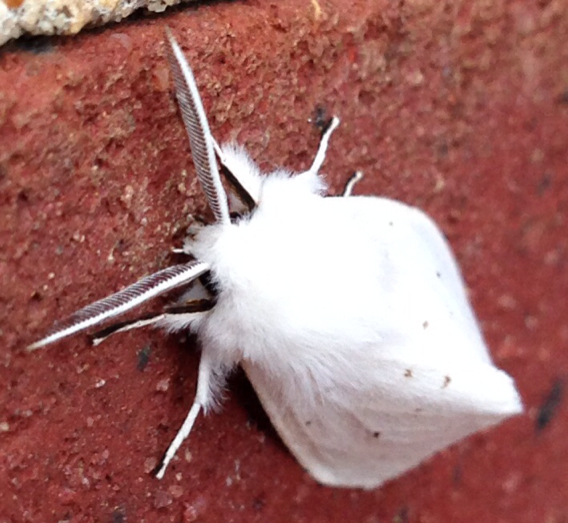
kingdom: Animalia
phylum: Arthropoda
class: Insecta
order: Lepidoptera
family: Erebidae
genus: Spilosoma
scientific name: Spilosoma congrua
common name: Agreeable tiger moth
